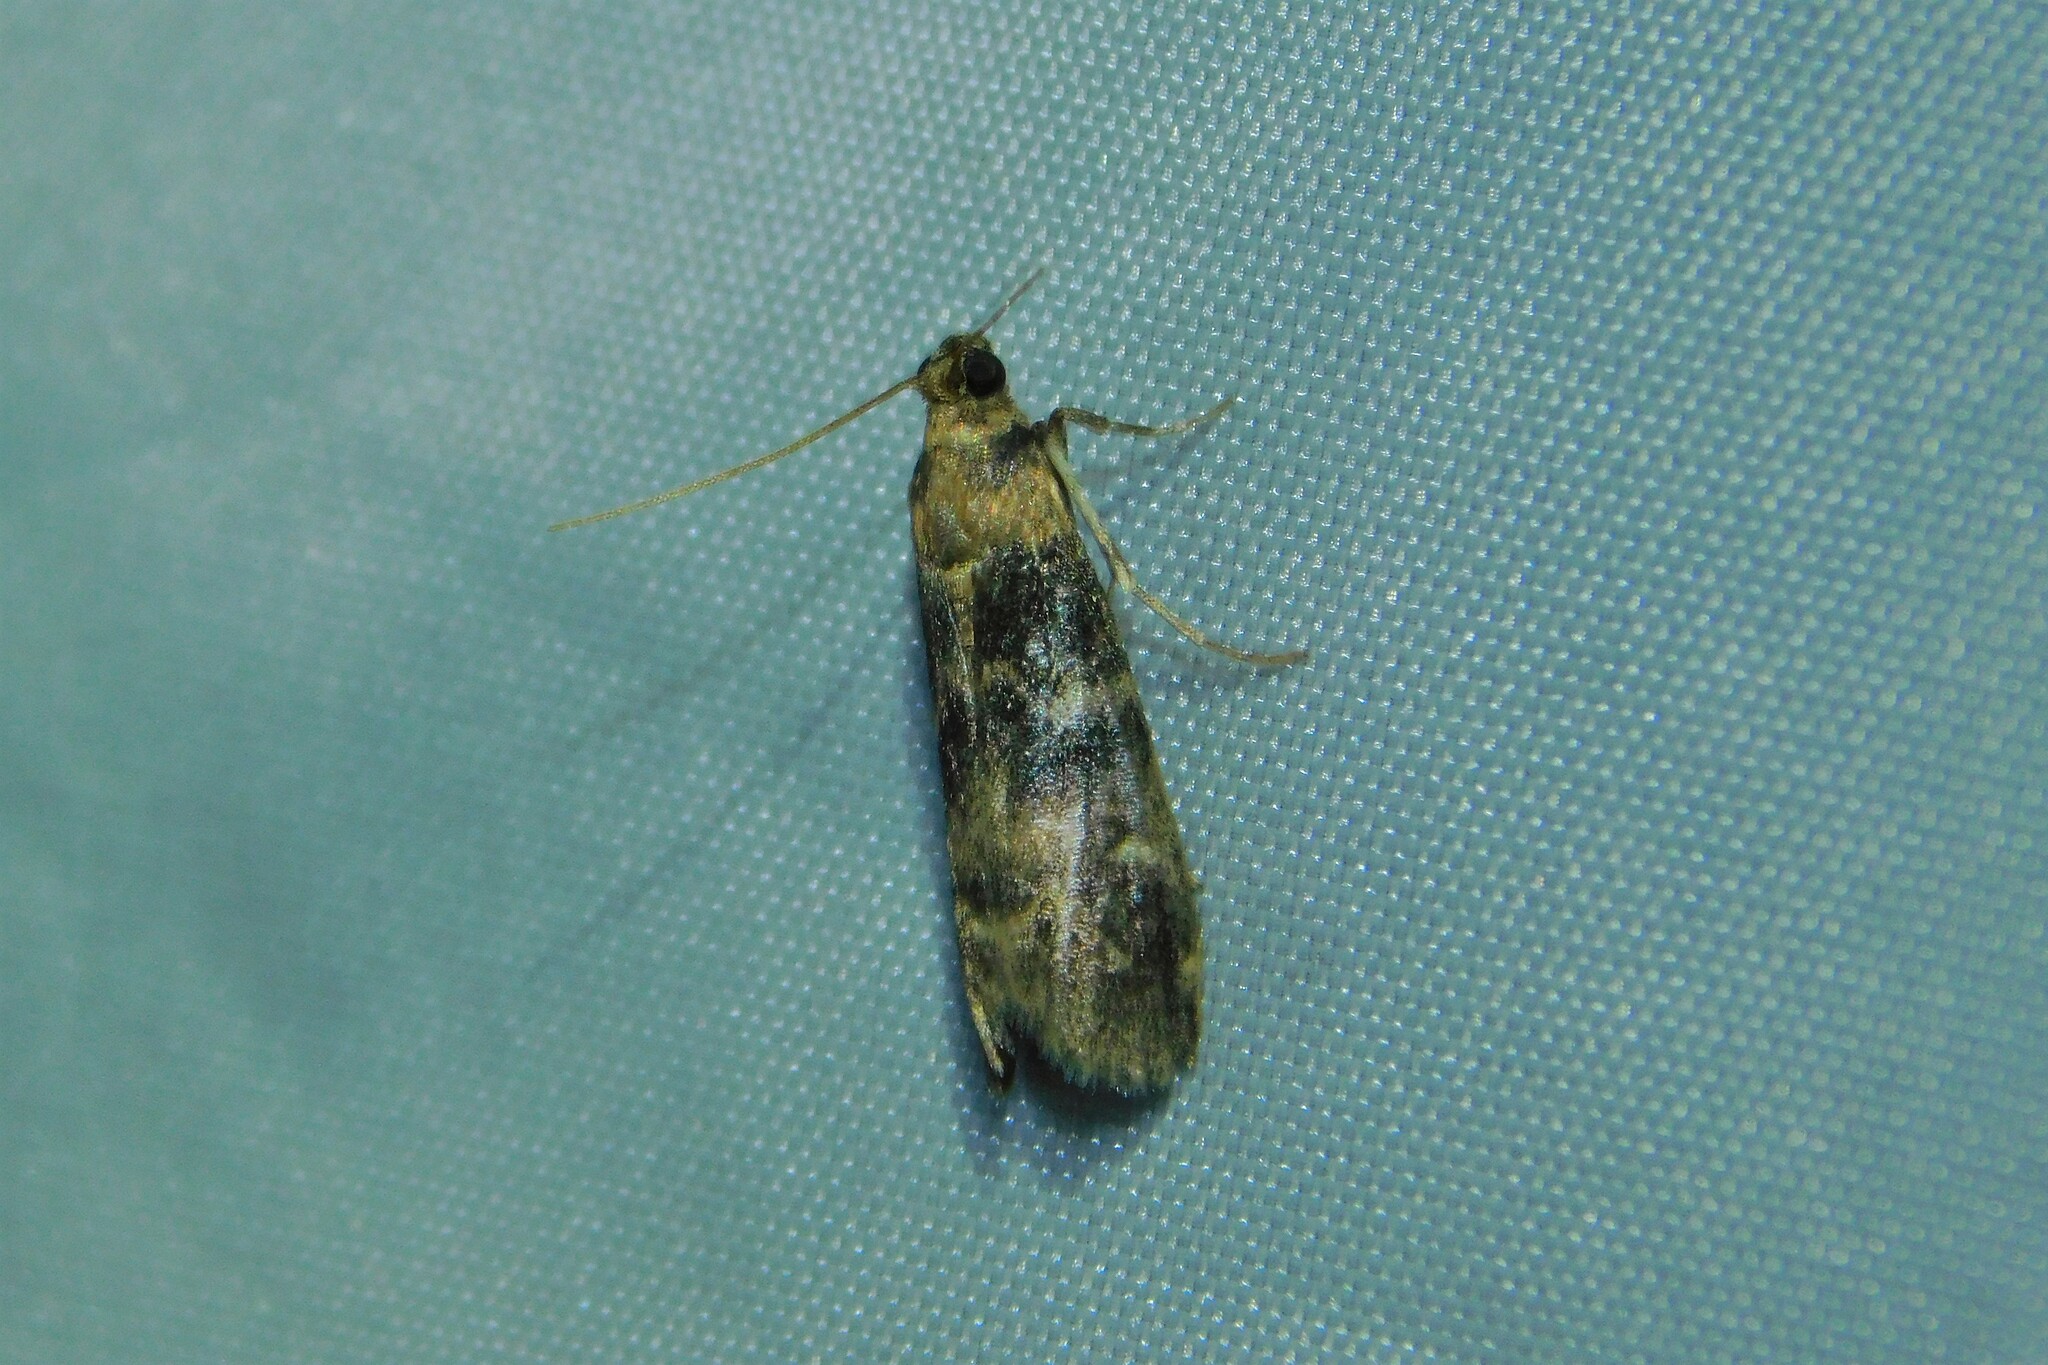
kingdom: Animalia
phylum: Arthropoda
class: Insecta
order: Lepidoptera
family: Pyralidae
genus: Euzophera
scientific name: Euzophera pinguis
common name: Ash-bark knot-horn
